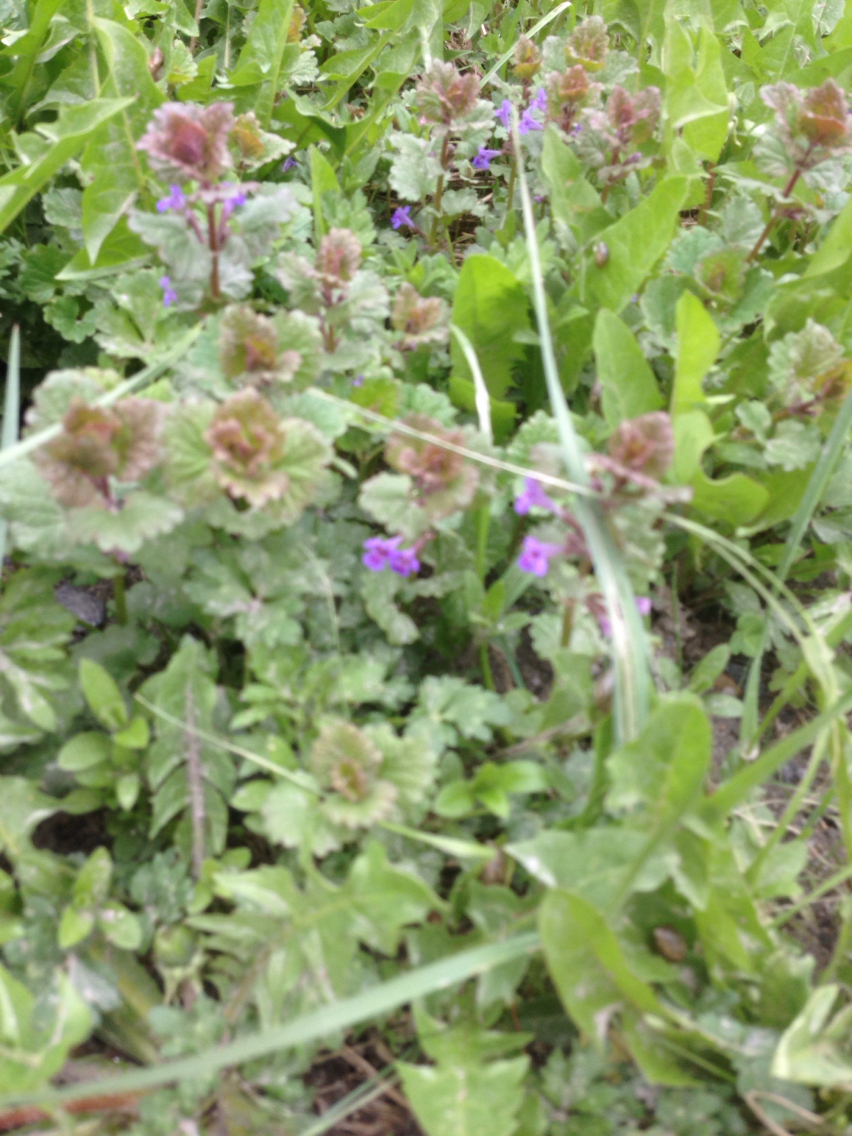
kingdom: Plantae
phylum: Tracheophyta
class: Magnoliopsida
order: Lamiales
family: Lamiaceae
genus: Glechoma
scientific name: Glechoma hederacea
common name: Ground ivy
